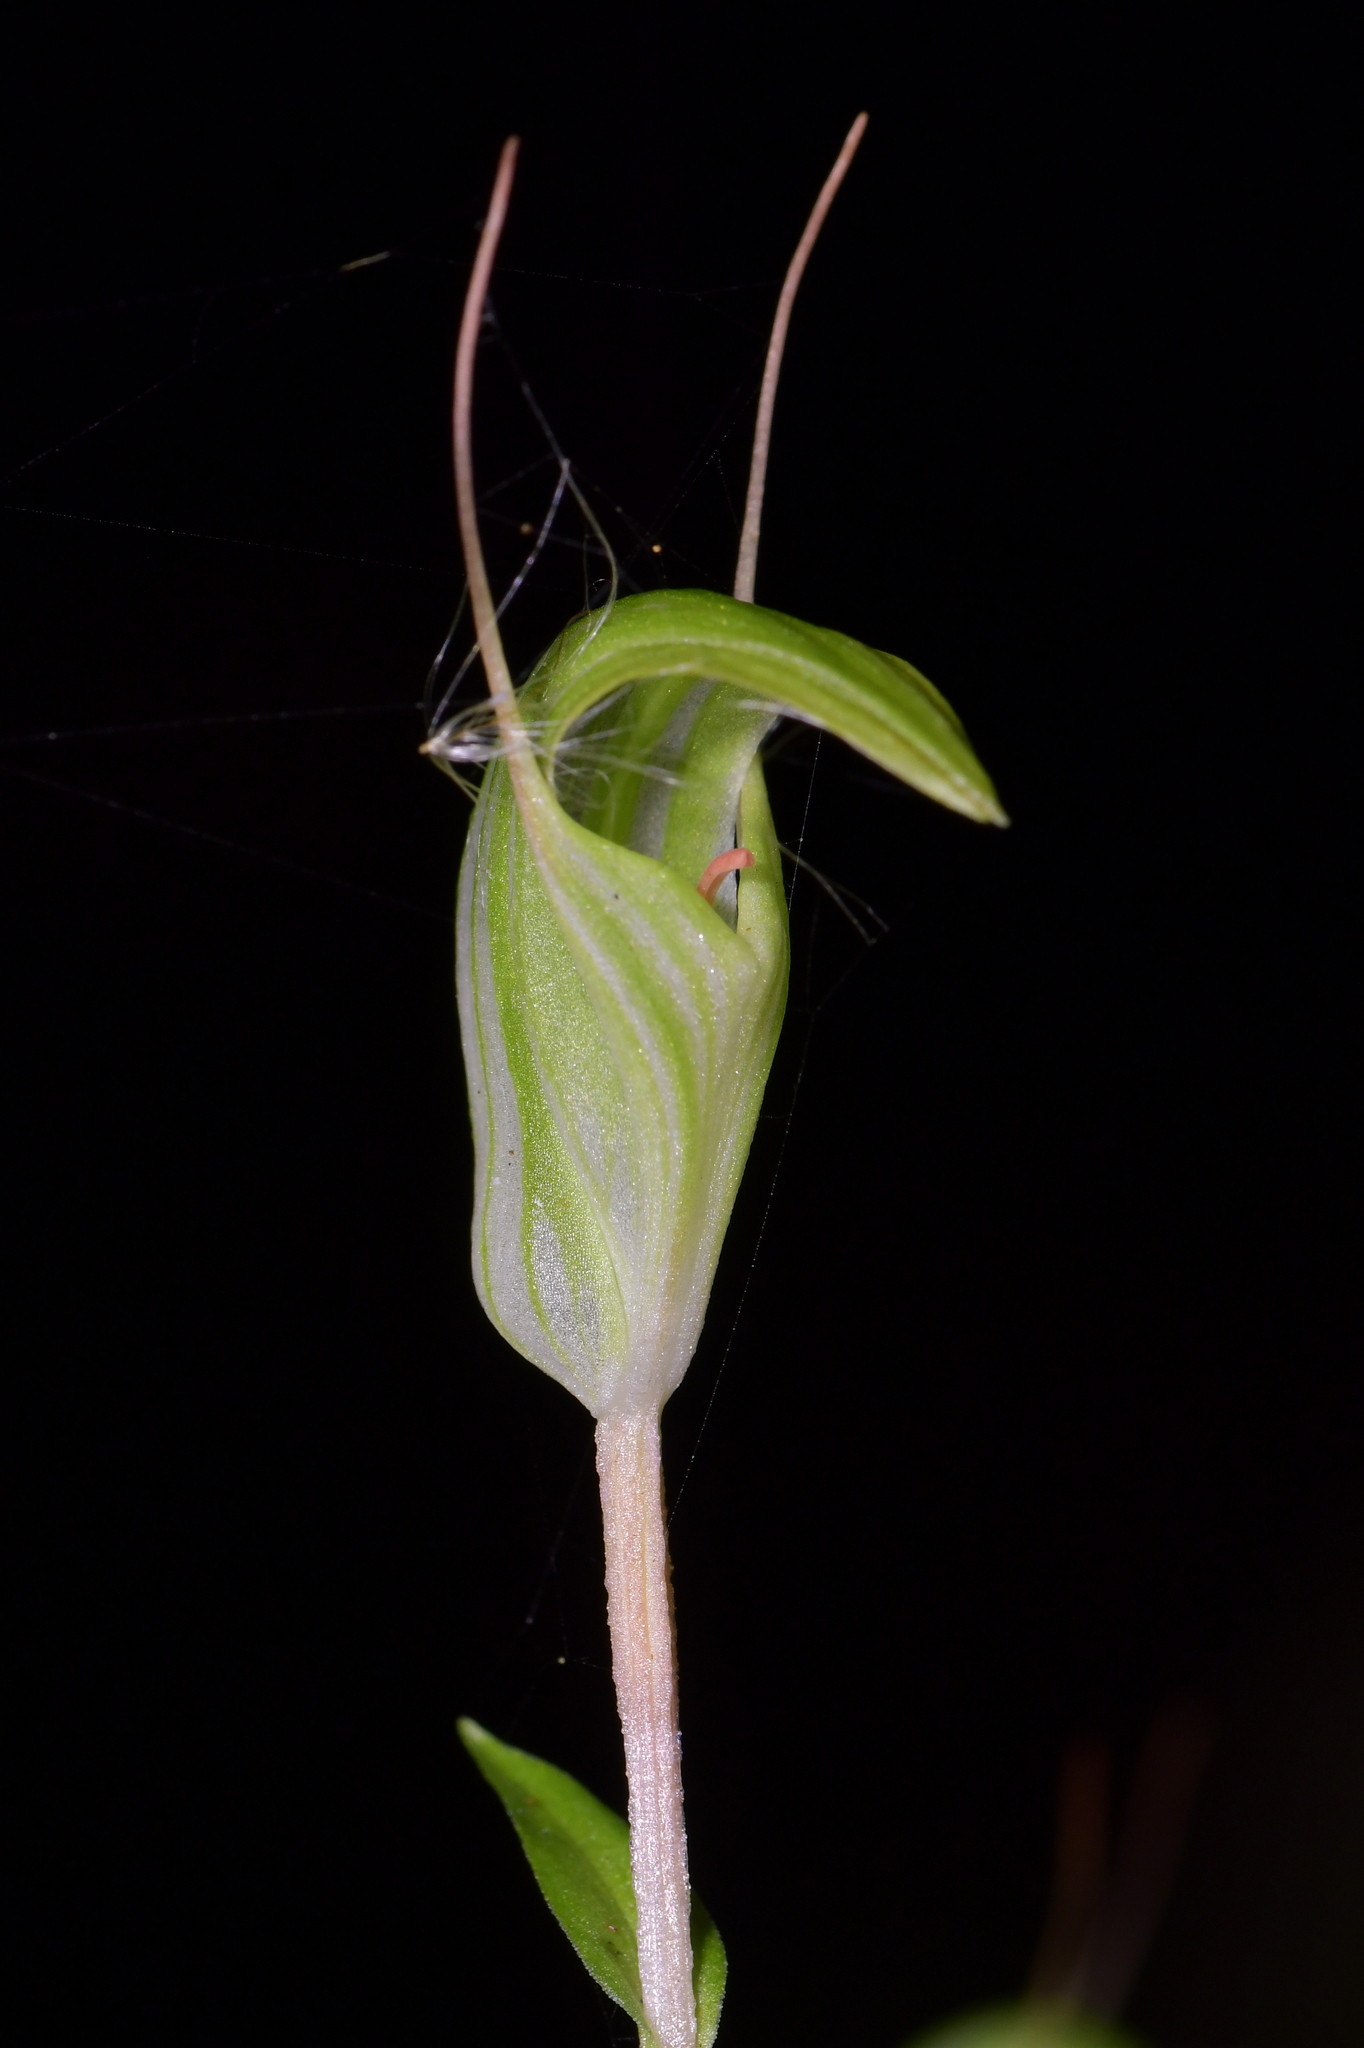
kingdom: Plantae
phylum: Tracheophyta
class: Liliopsida
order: Asparagales
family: Orchidaceae
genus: Pterostylis
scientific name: Pterostylis alobula
